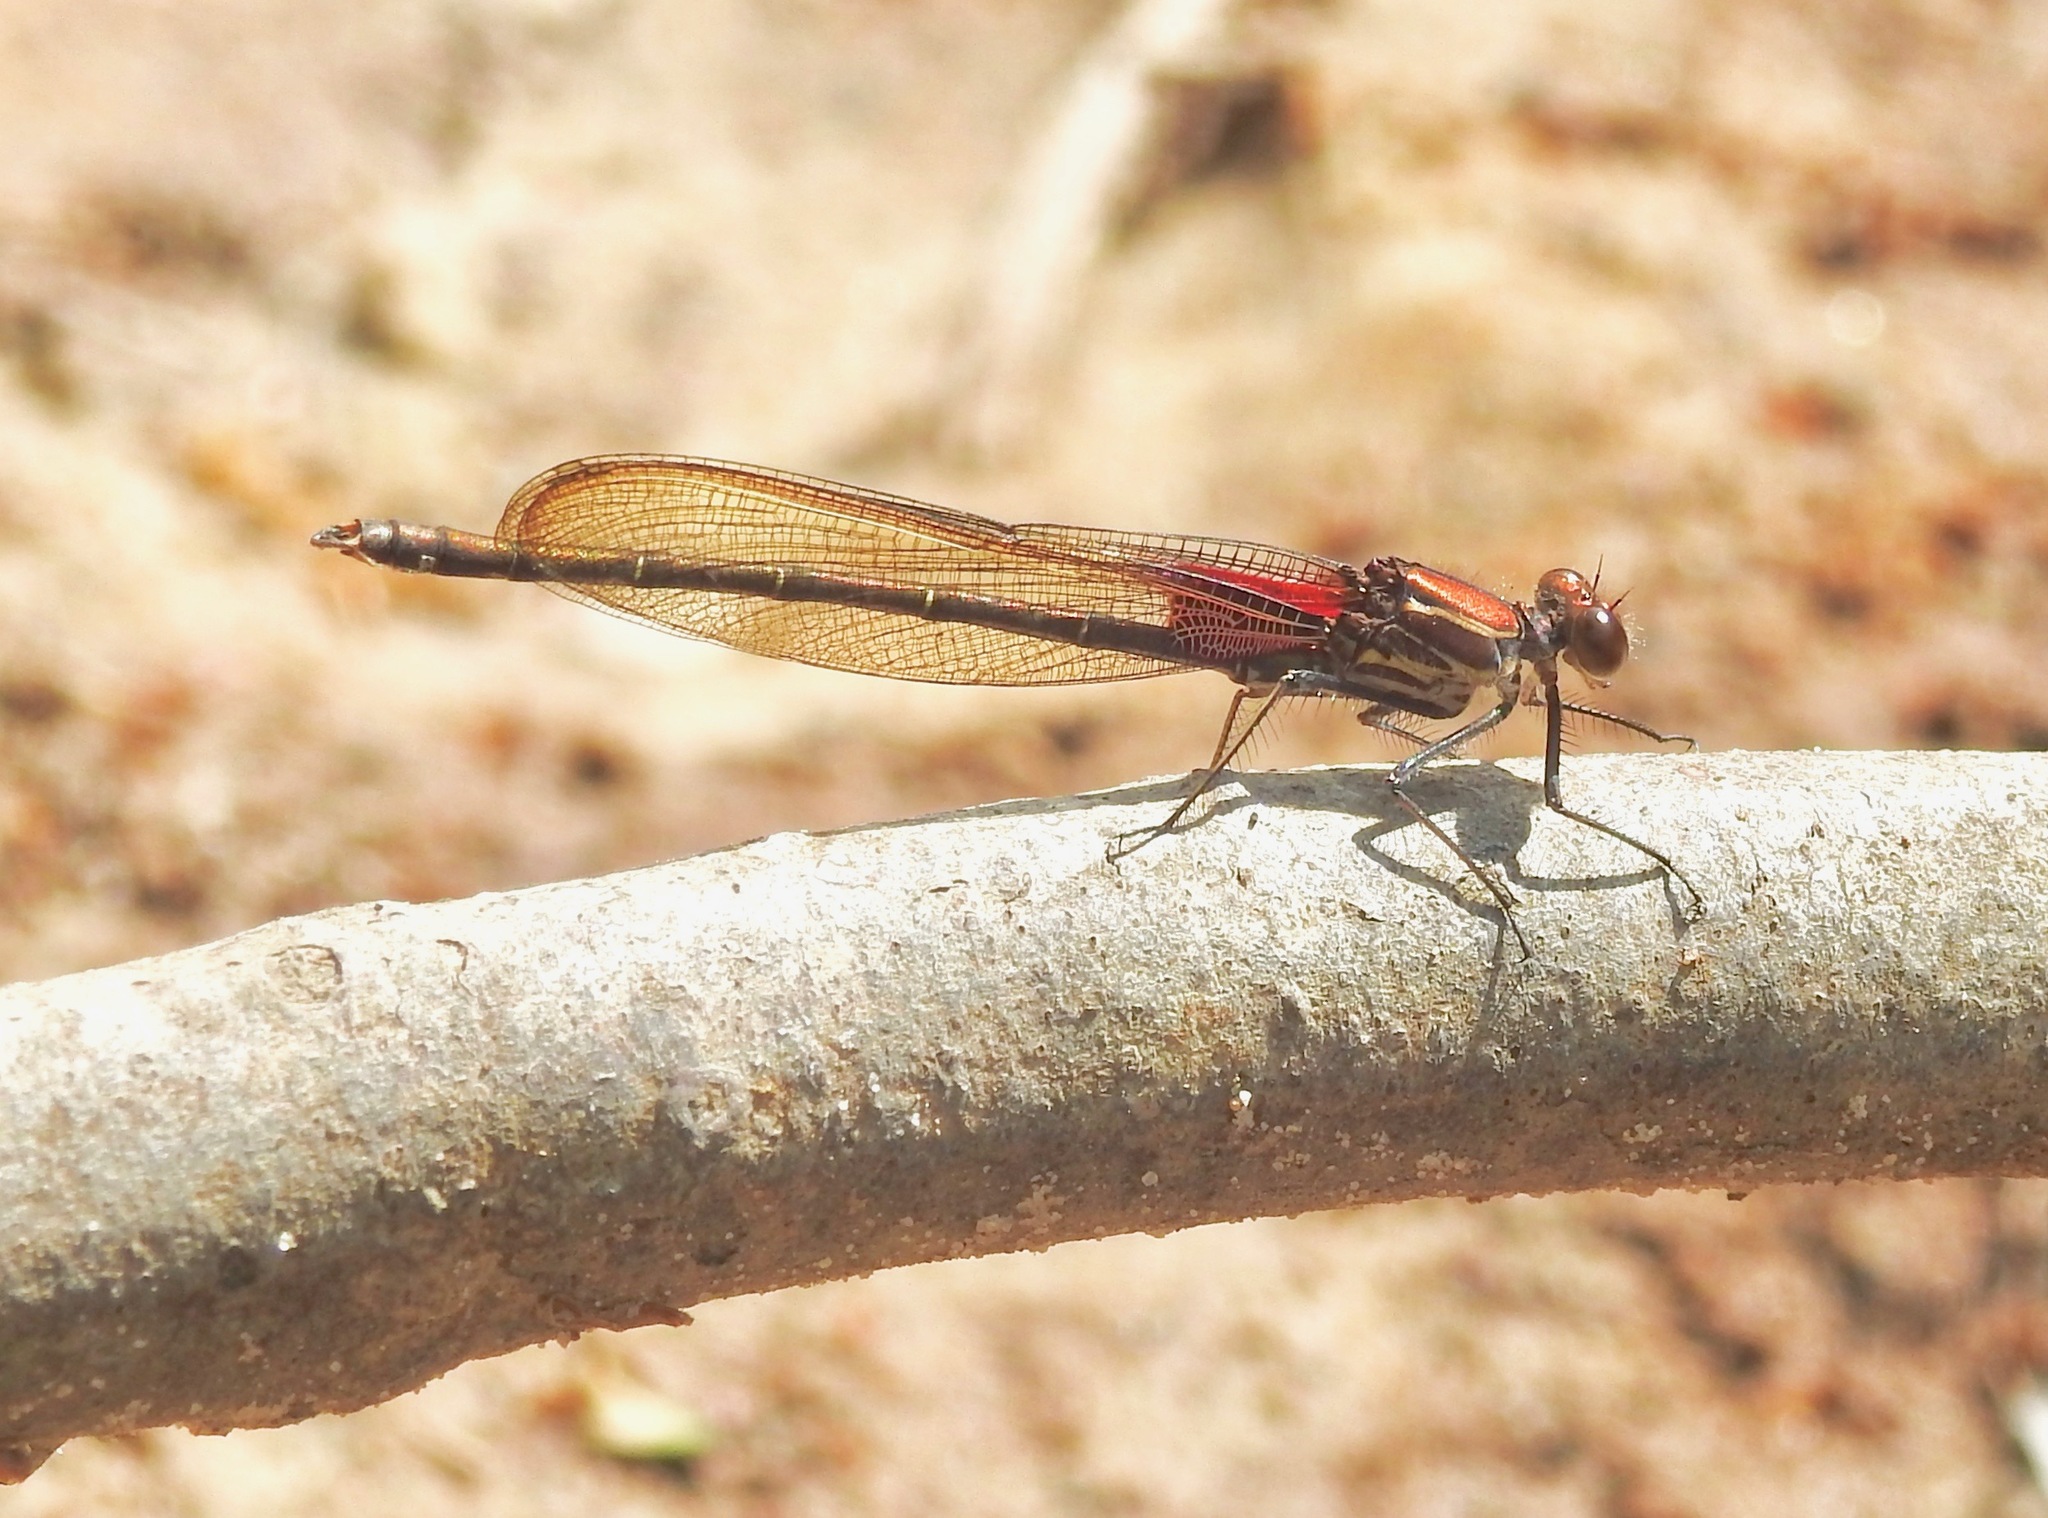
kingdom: Animalia
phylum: Arthropoda
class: Insecta
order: Odonata
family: Calopterygidae
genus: Hetaerina
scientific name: Hetaerina americana
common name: American rubyspot
